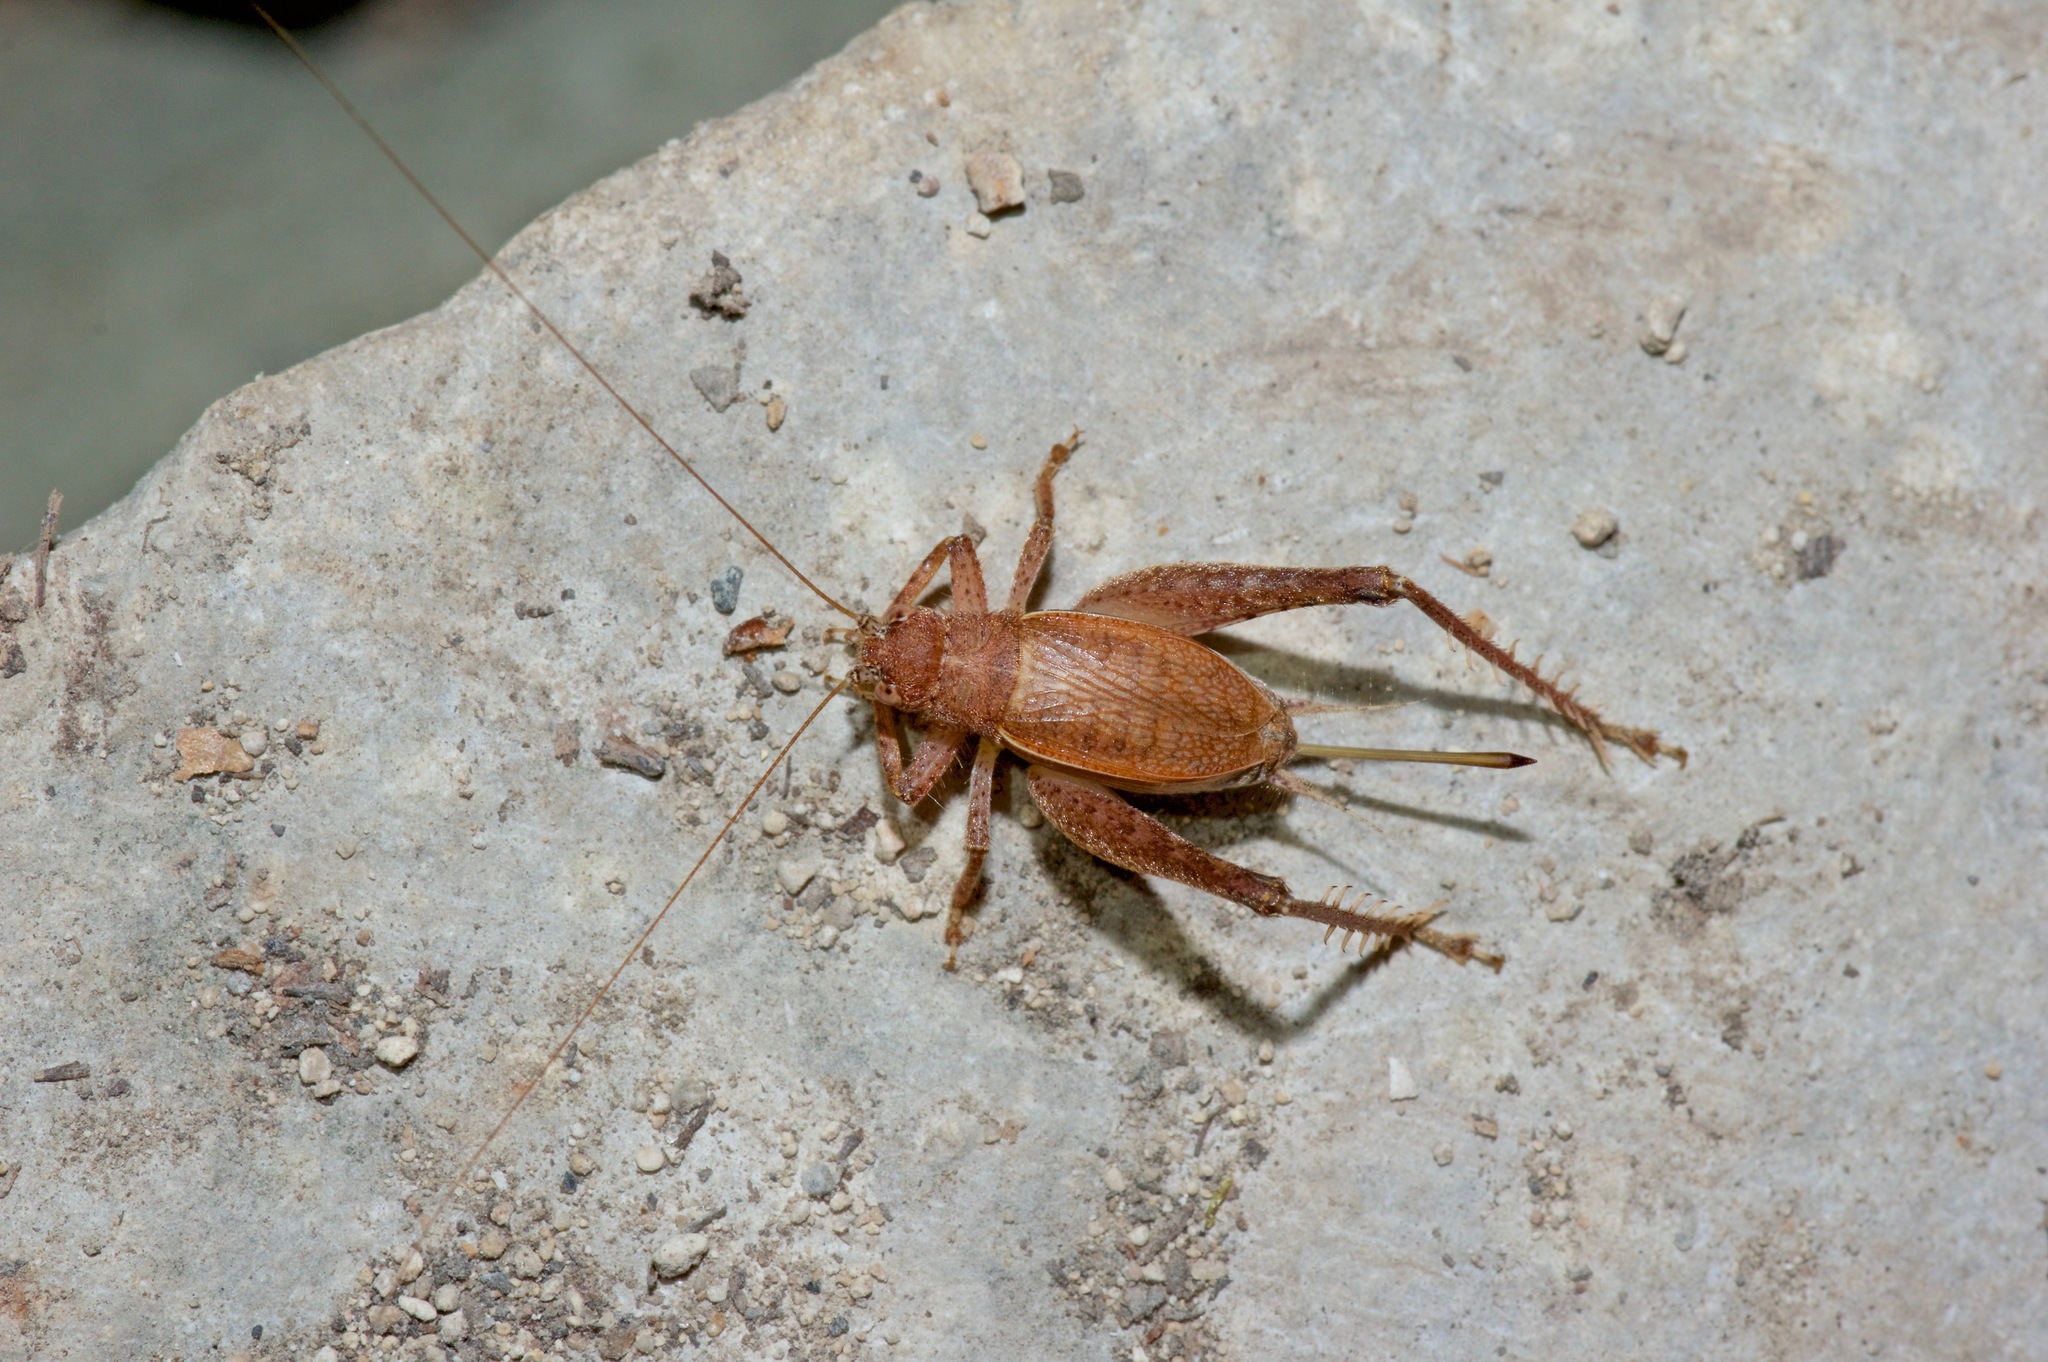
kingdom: Animalia
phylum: Arthropoda
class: Insecta
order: Orthoptera
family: Gryllidae
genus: Hapithus
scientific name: Hapithus agitator
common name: Restless bush cricket
